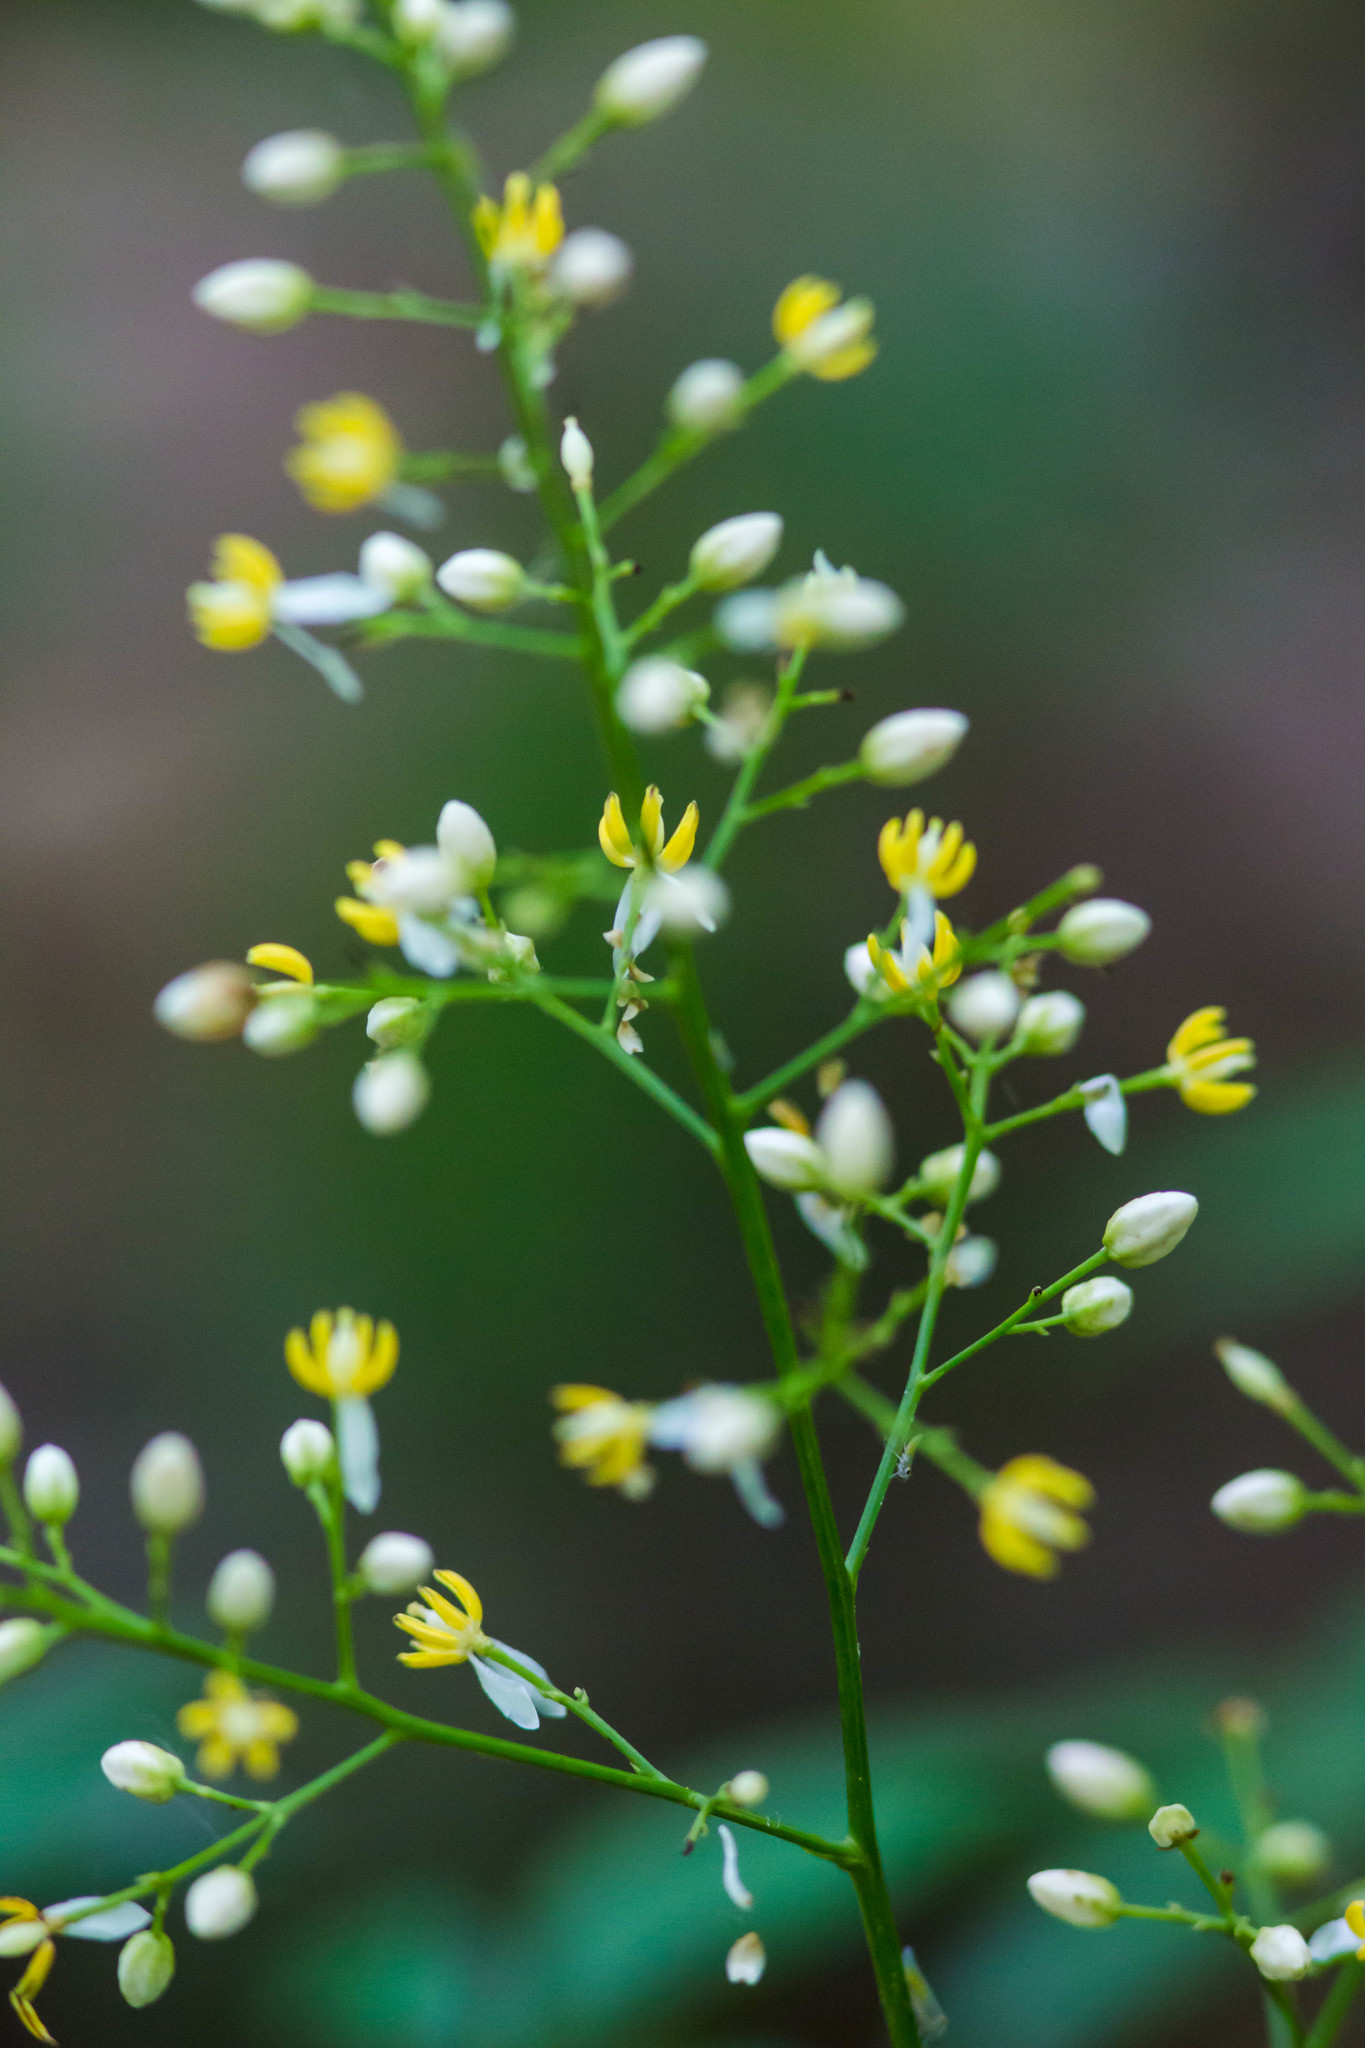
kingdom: Plantae
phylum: Tracheophyta
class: Magnoliopsida
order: Ranunculales
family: Berberidaceae
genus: Nandina
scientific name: Nandina domestica
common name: Sacred bamboo
